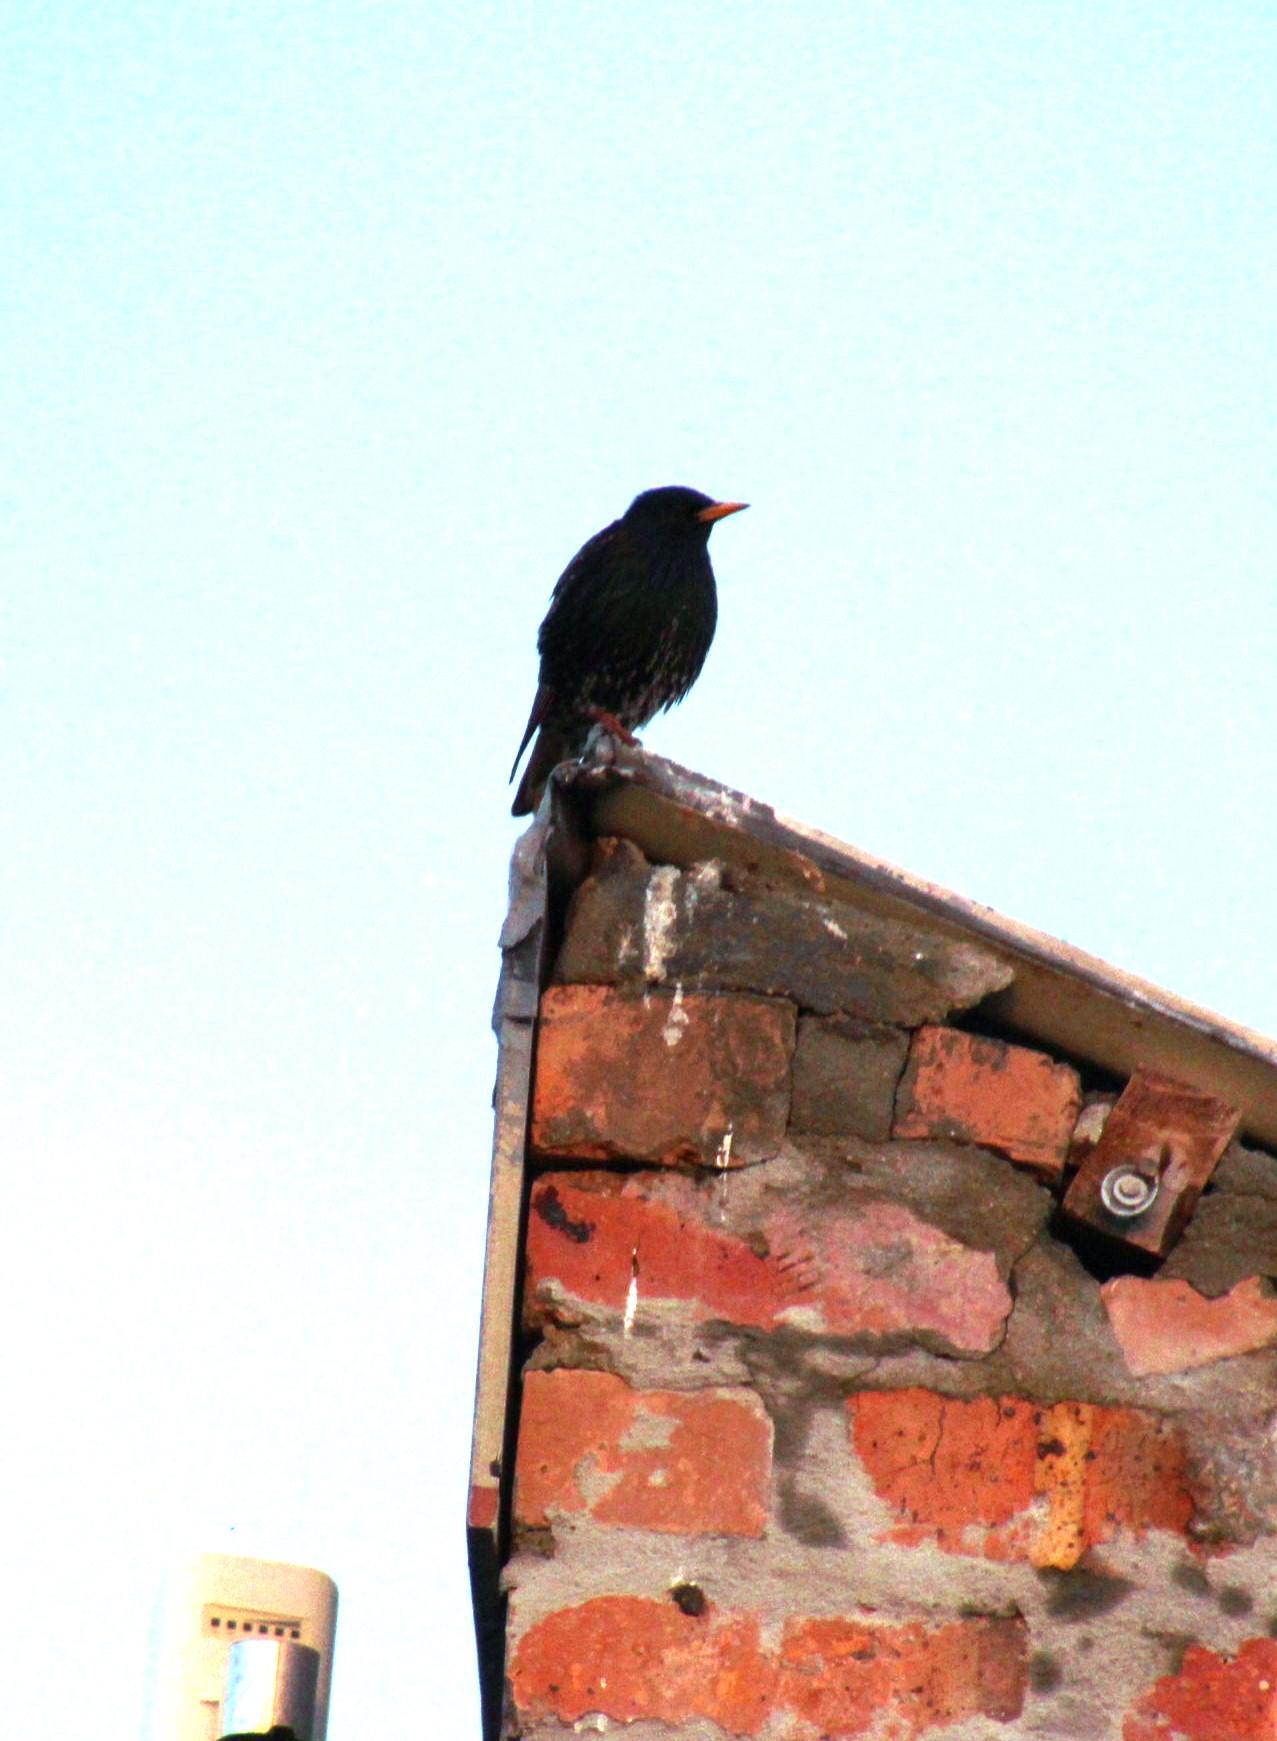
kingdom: Animalia
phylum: Chordata
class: Aves
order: Passeriformes
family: Sturnidae
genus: Sturnus
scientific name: Sturnus vulgaris
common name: Common starling
